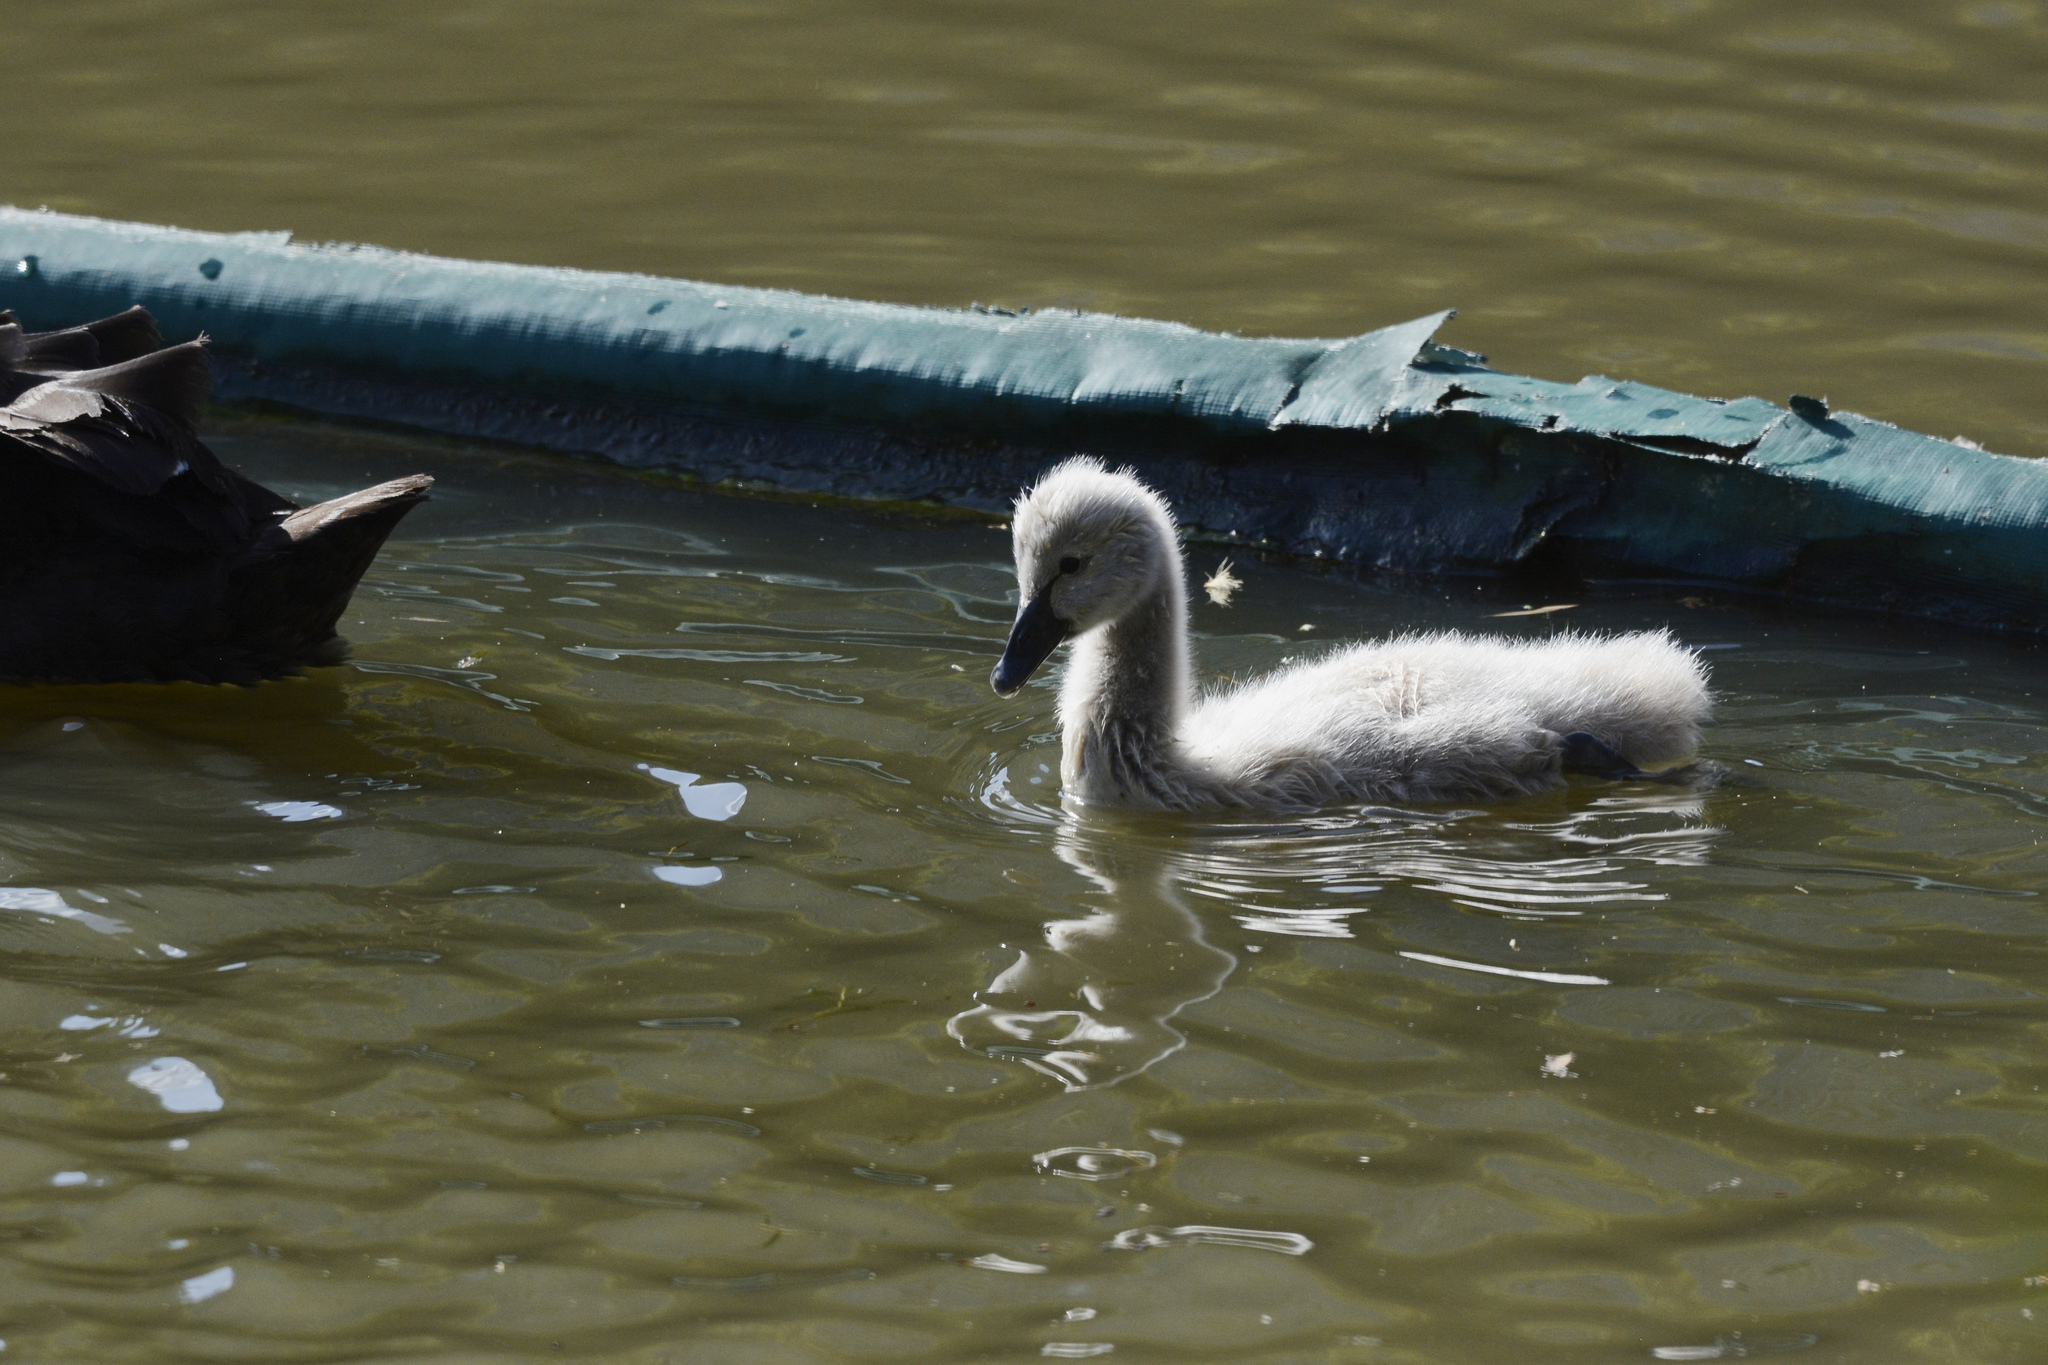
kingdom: Animalia
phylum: Chordata
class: Aves
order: Anseriformes
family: Anatidae
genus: Cygnus
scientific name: Cygnus atratus
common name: Black swan
